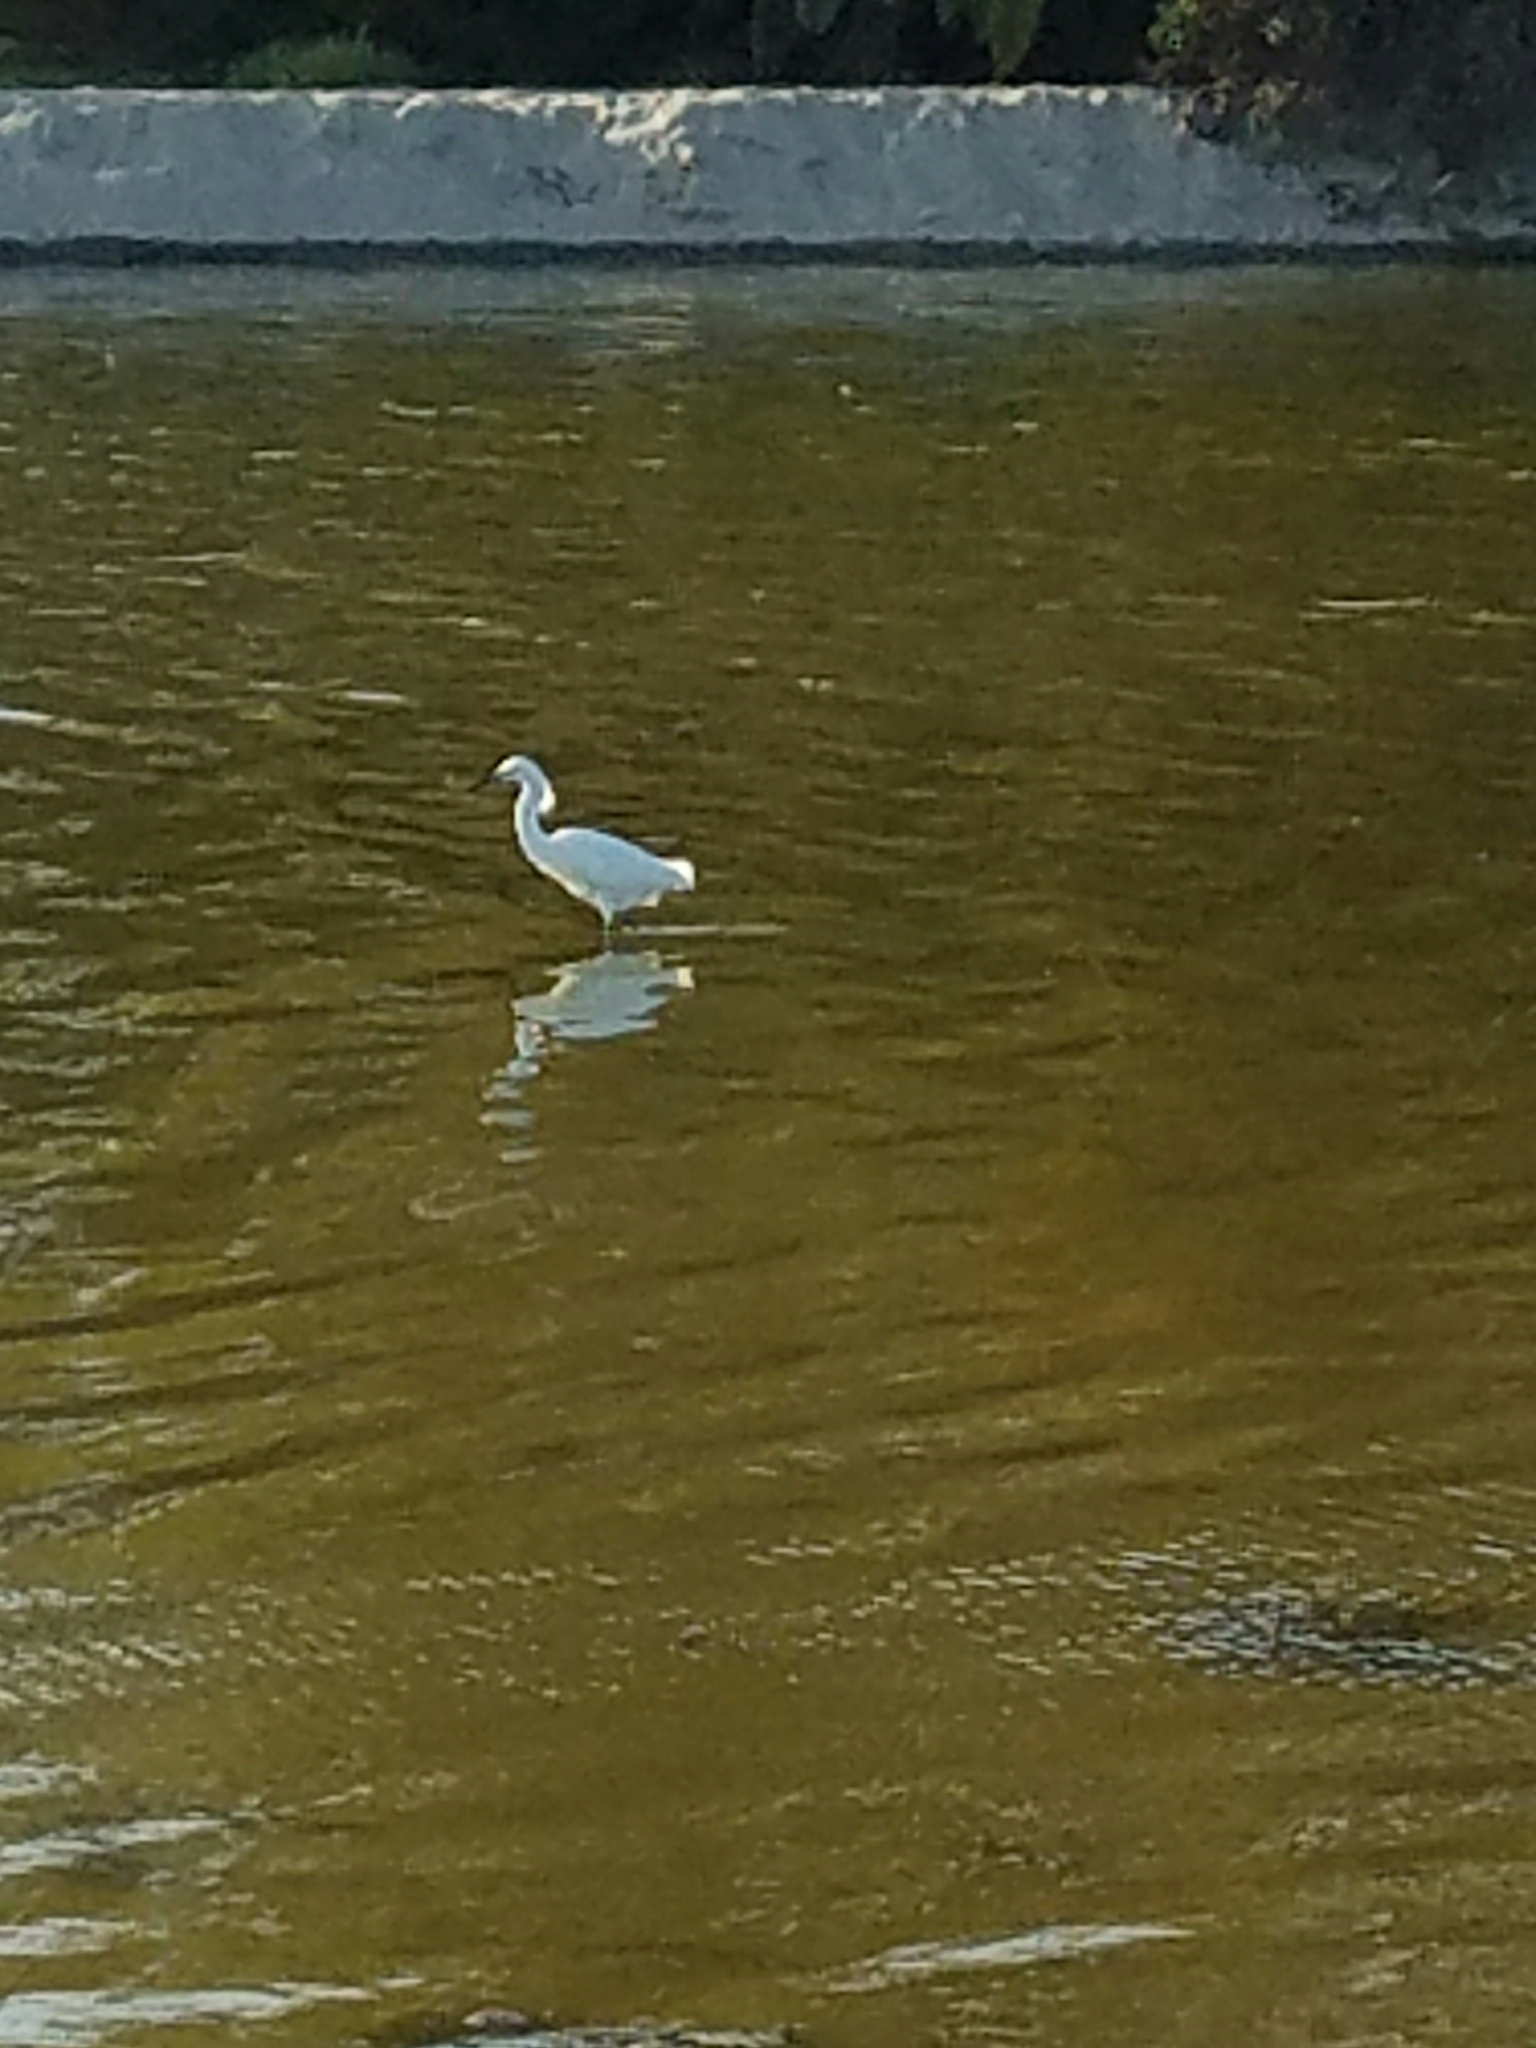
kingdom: Animalia
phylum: Chordata
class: Aves
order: Pelecaniformes
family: Ardeidae
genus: Egretta
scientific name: Egretta thula
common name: Snowy egret
